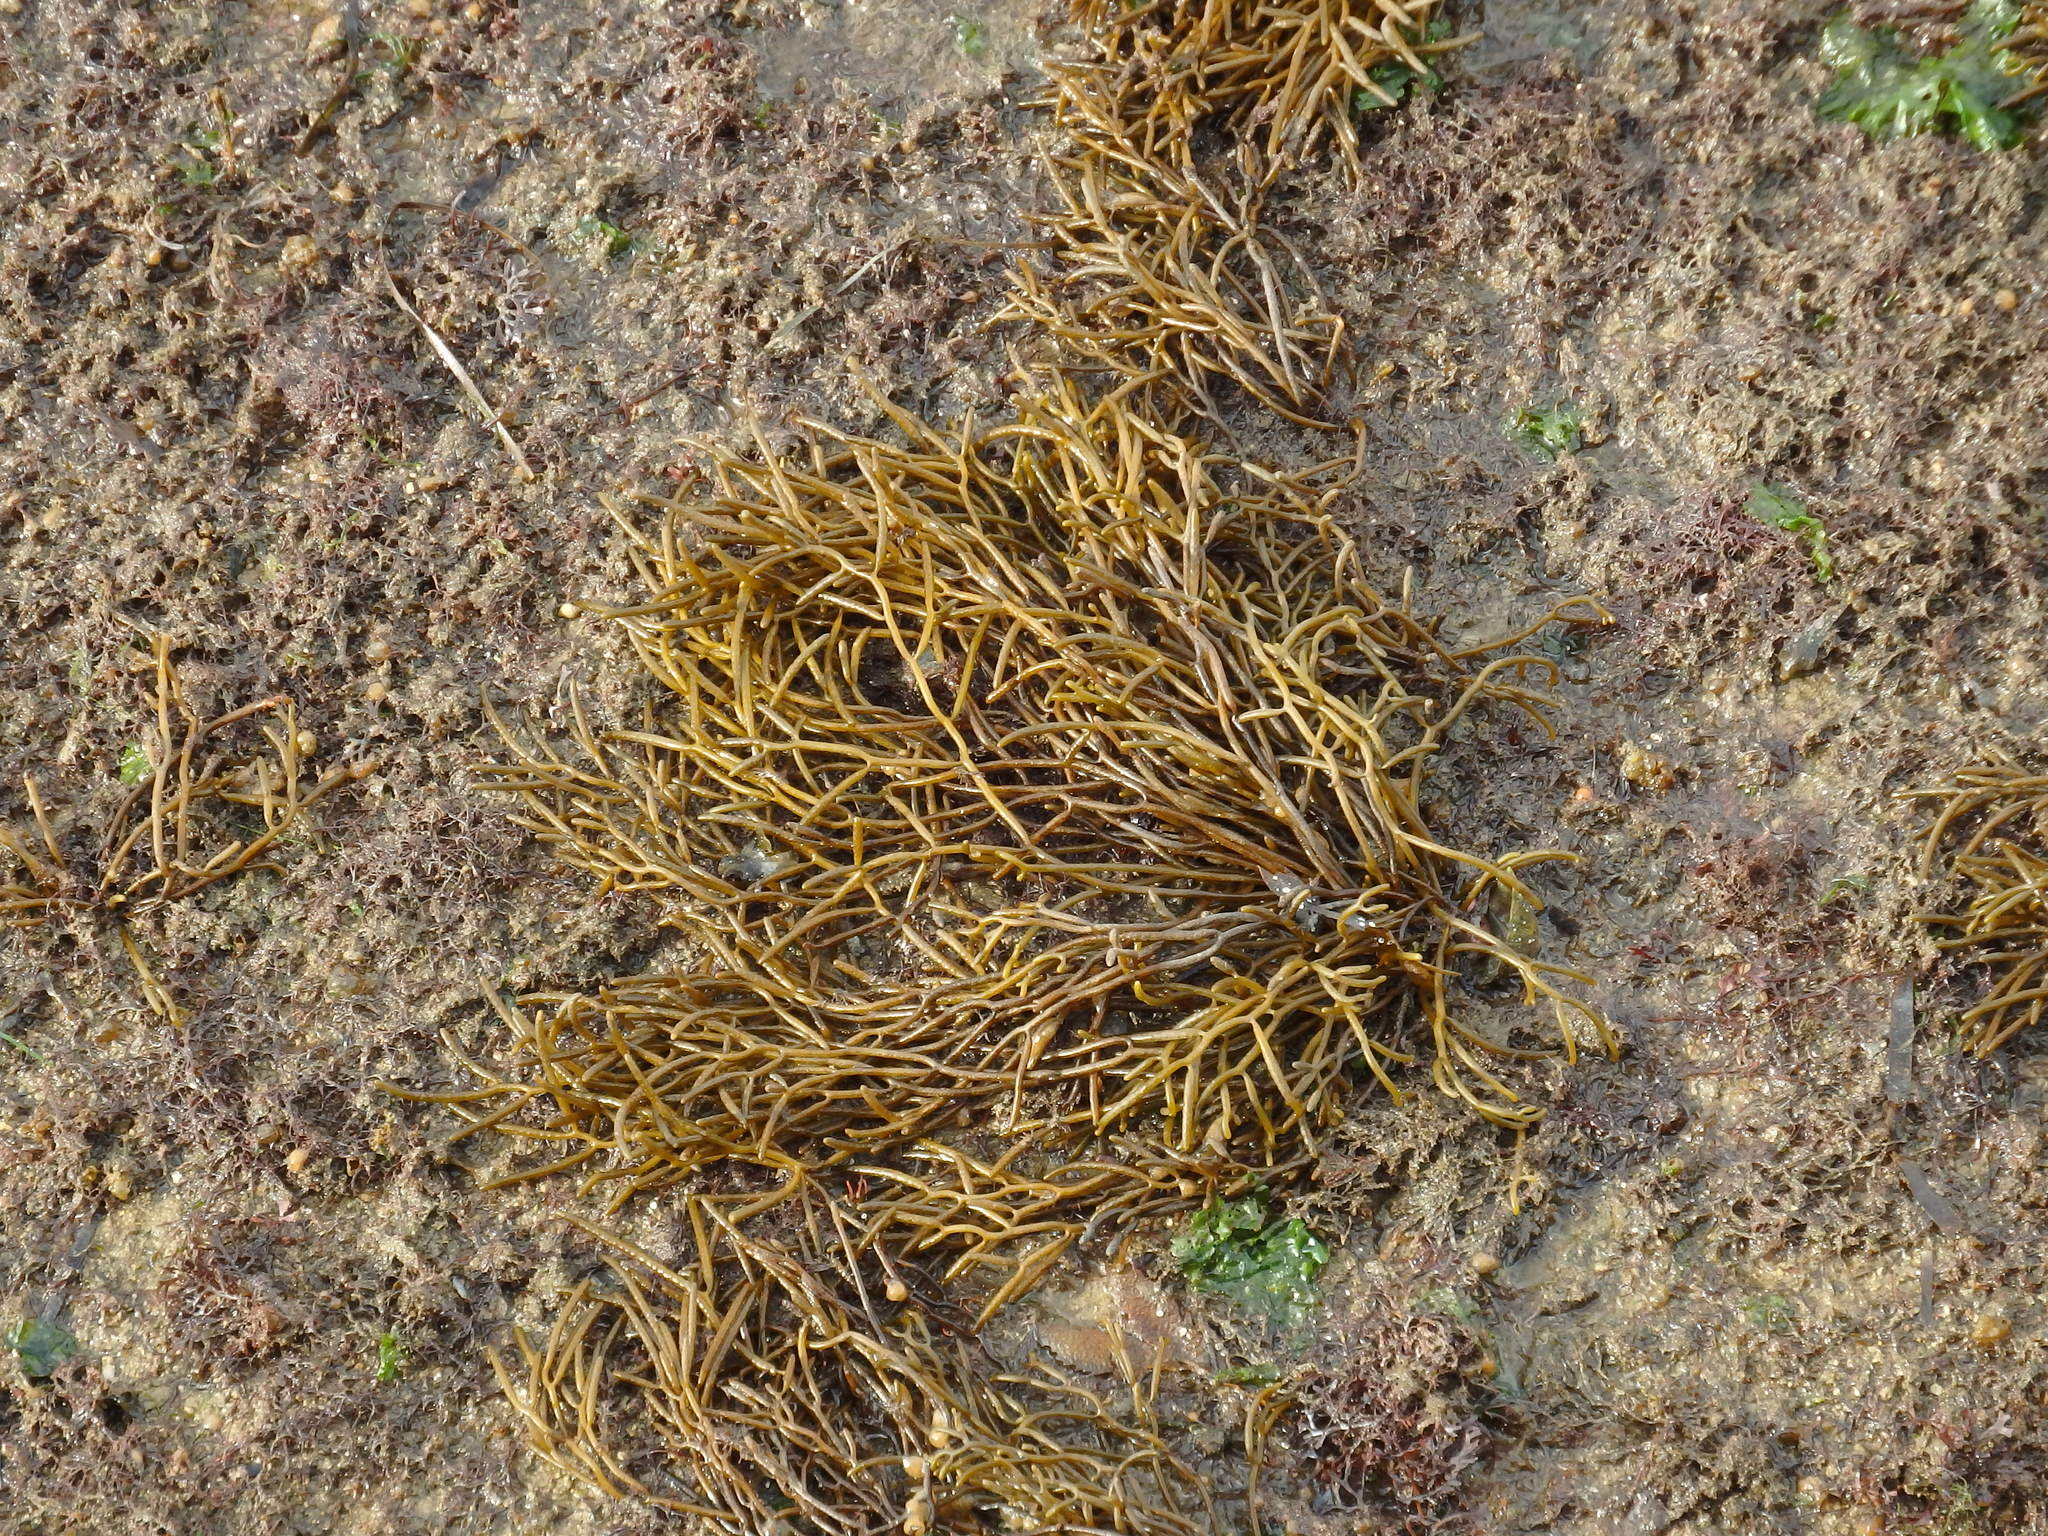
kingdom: Chromista
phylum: Ochrophyta
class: Phaeophyceae
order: Fucales
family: Sargassaceae
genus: Bifurcaria
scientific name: Bifurcaria bifurcata
